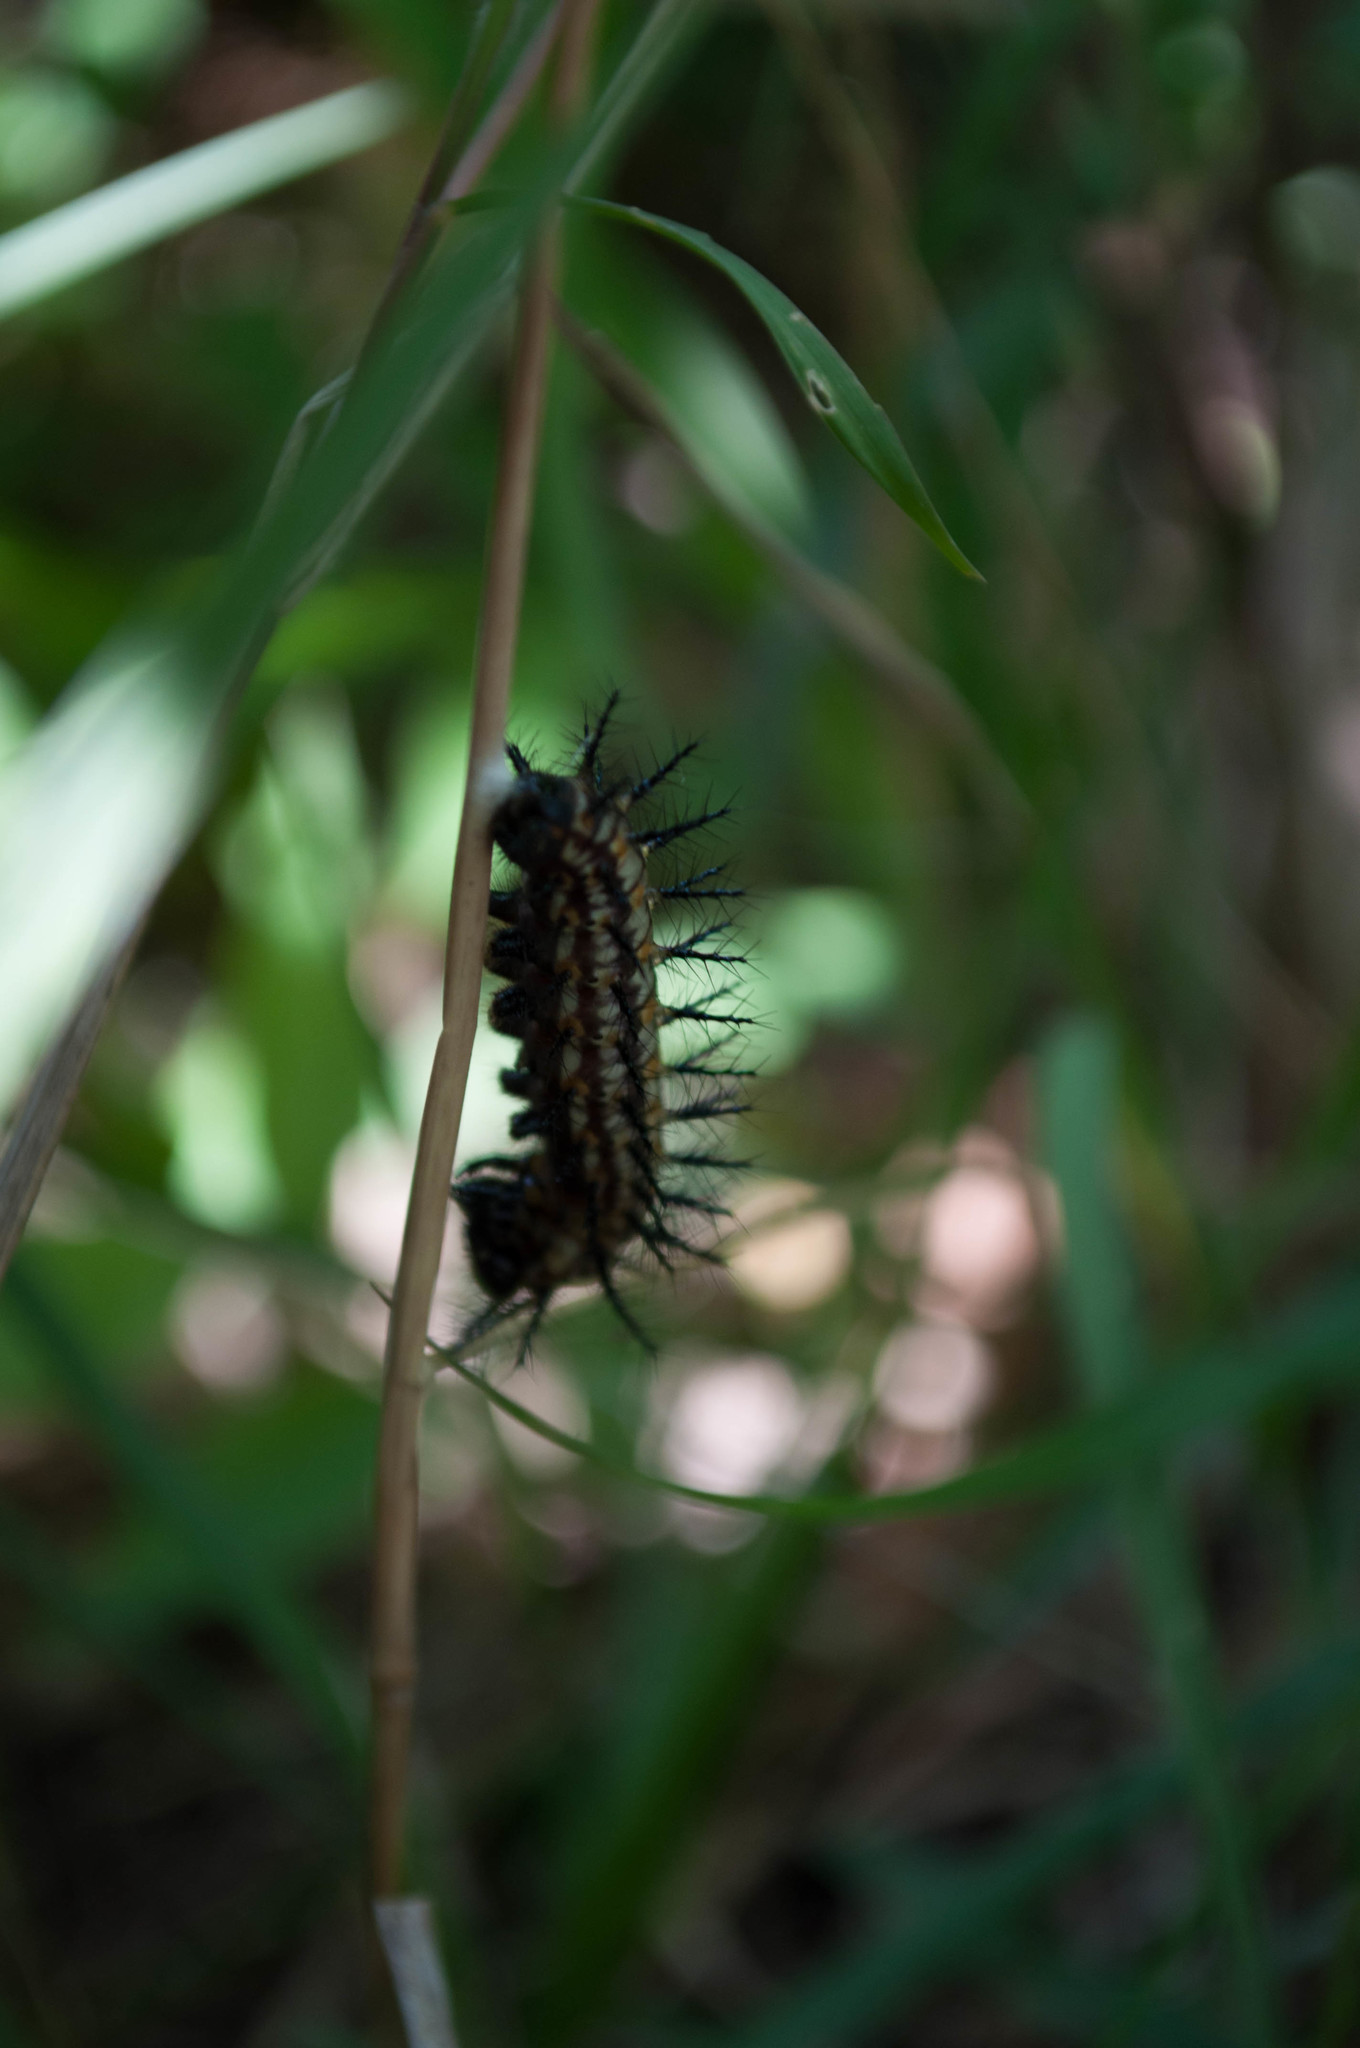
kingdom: Animalia
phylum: Arthropoda
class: Insecta
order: Lepidoptera
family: Nymphalidae
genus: Acraea
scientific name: Acraea Telchinia issoria
